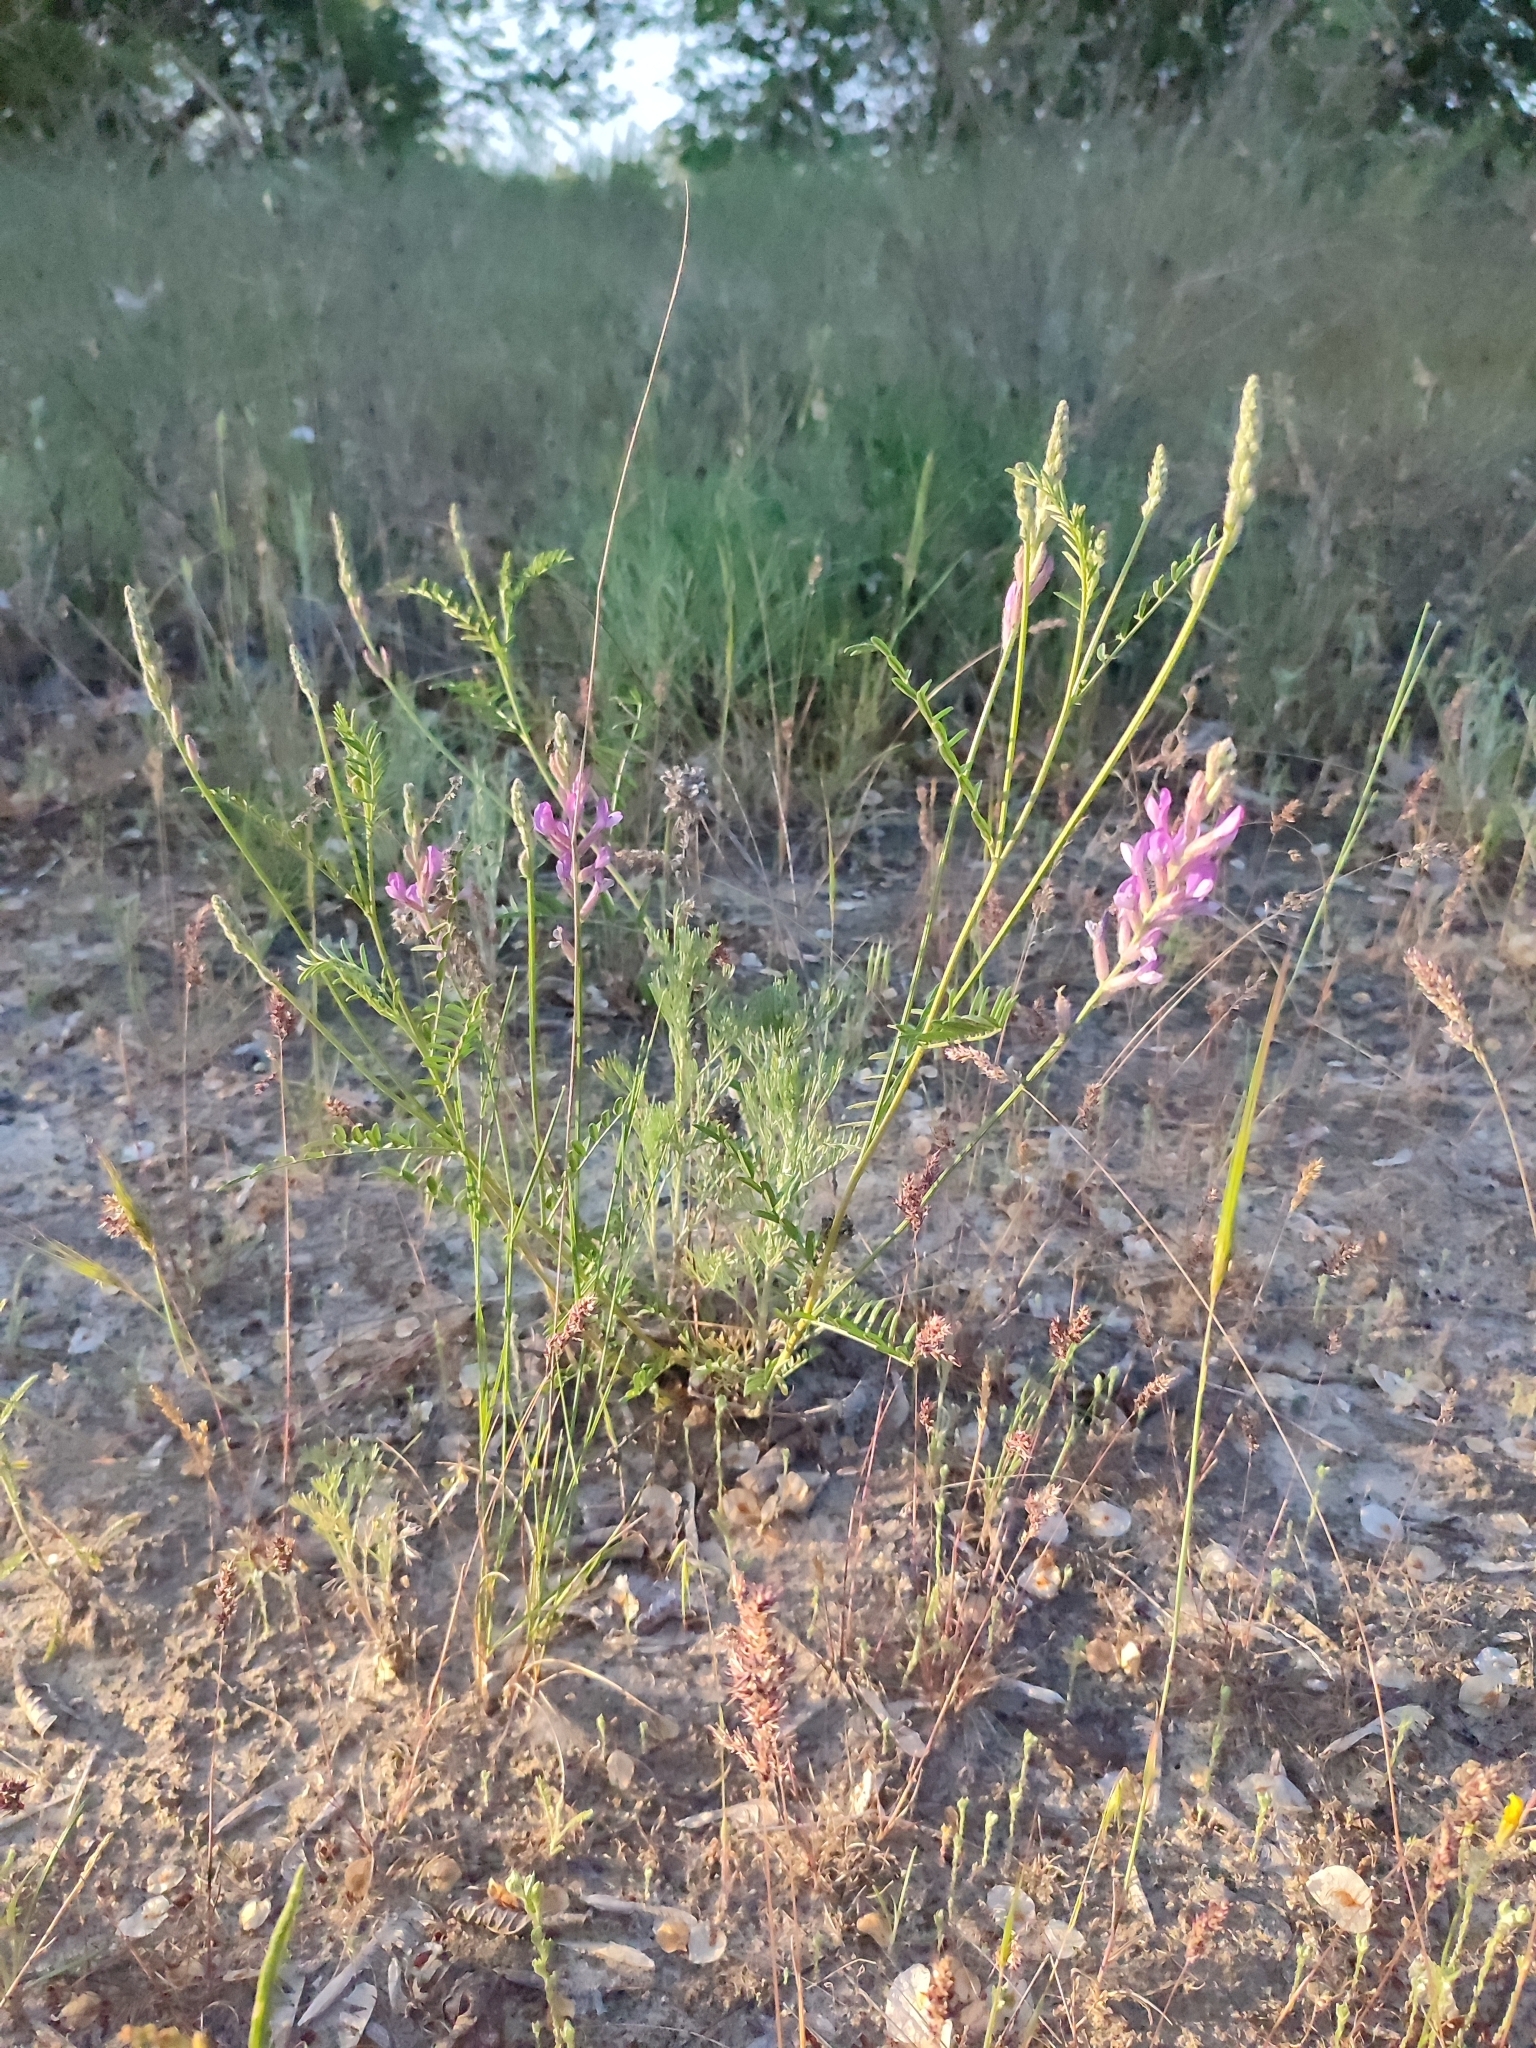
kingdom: Plantae
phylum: Tracheophyta
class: Magnoliopsida
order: Fabales
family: Fabaceae
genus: Astragalus
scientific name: Astragalus varius
